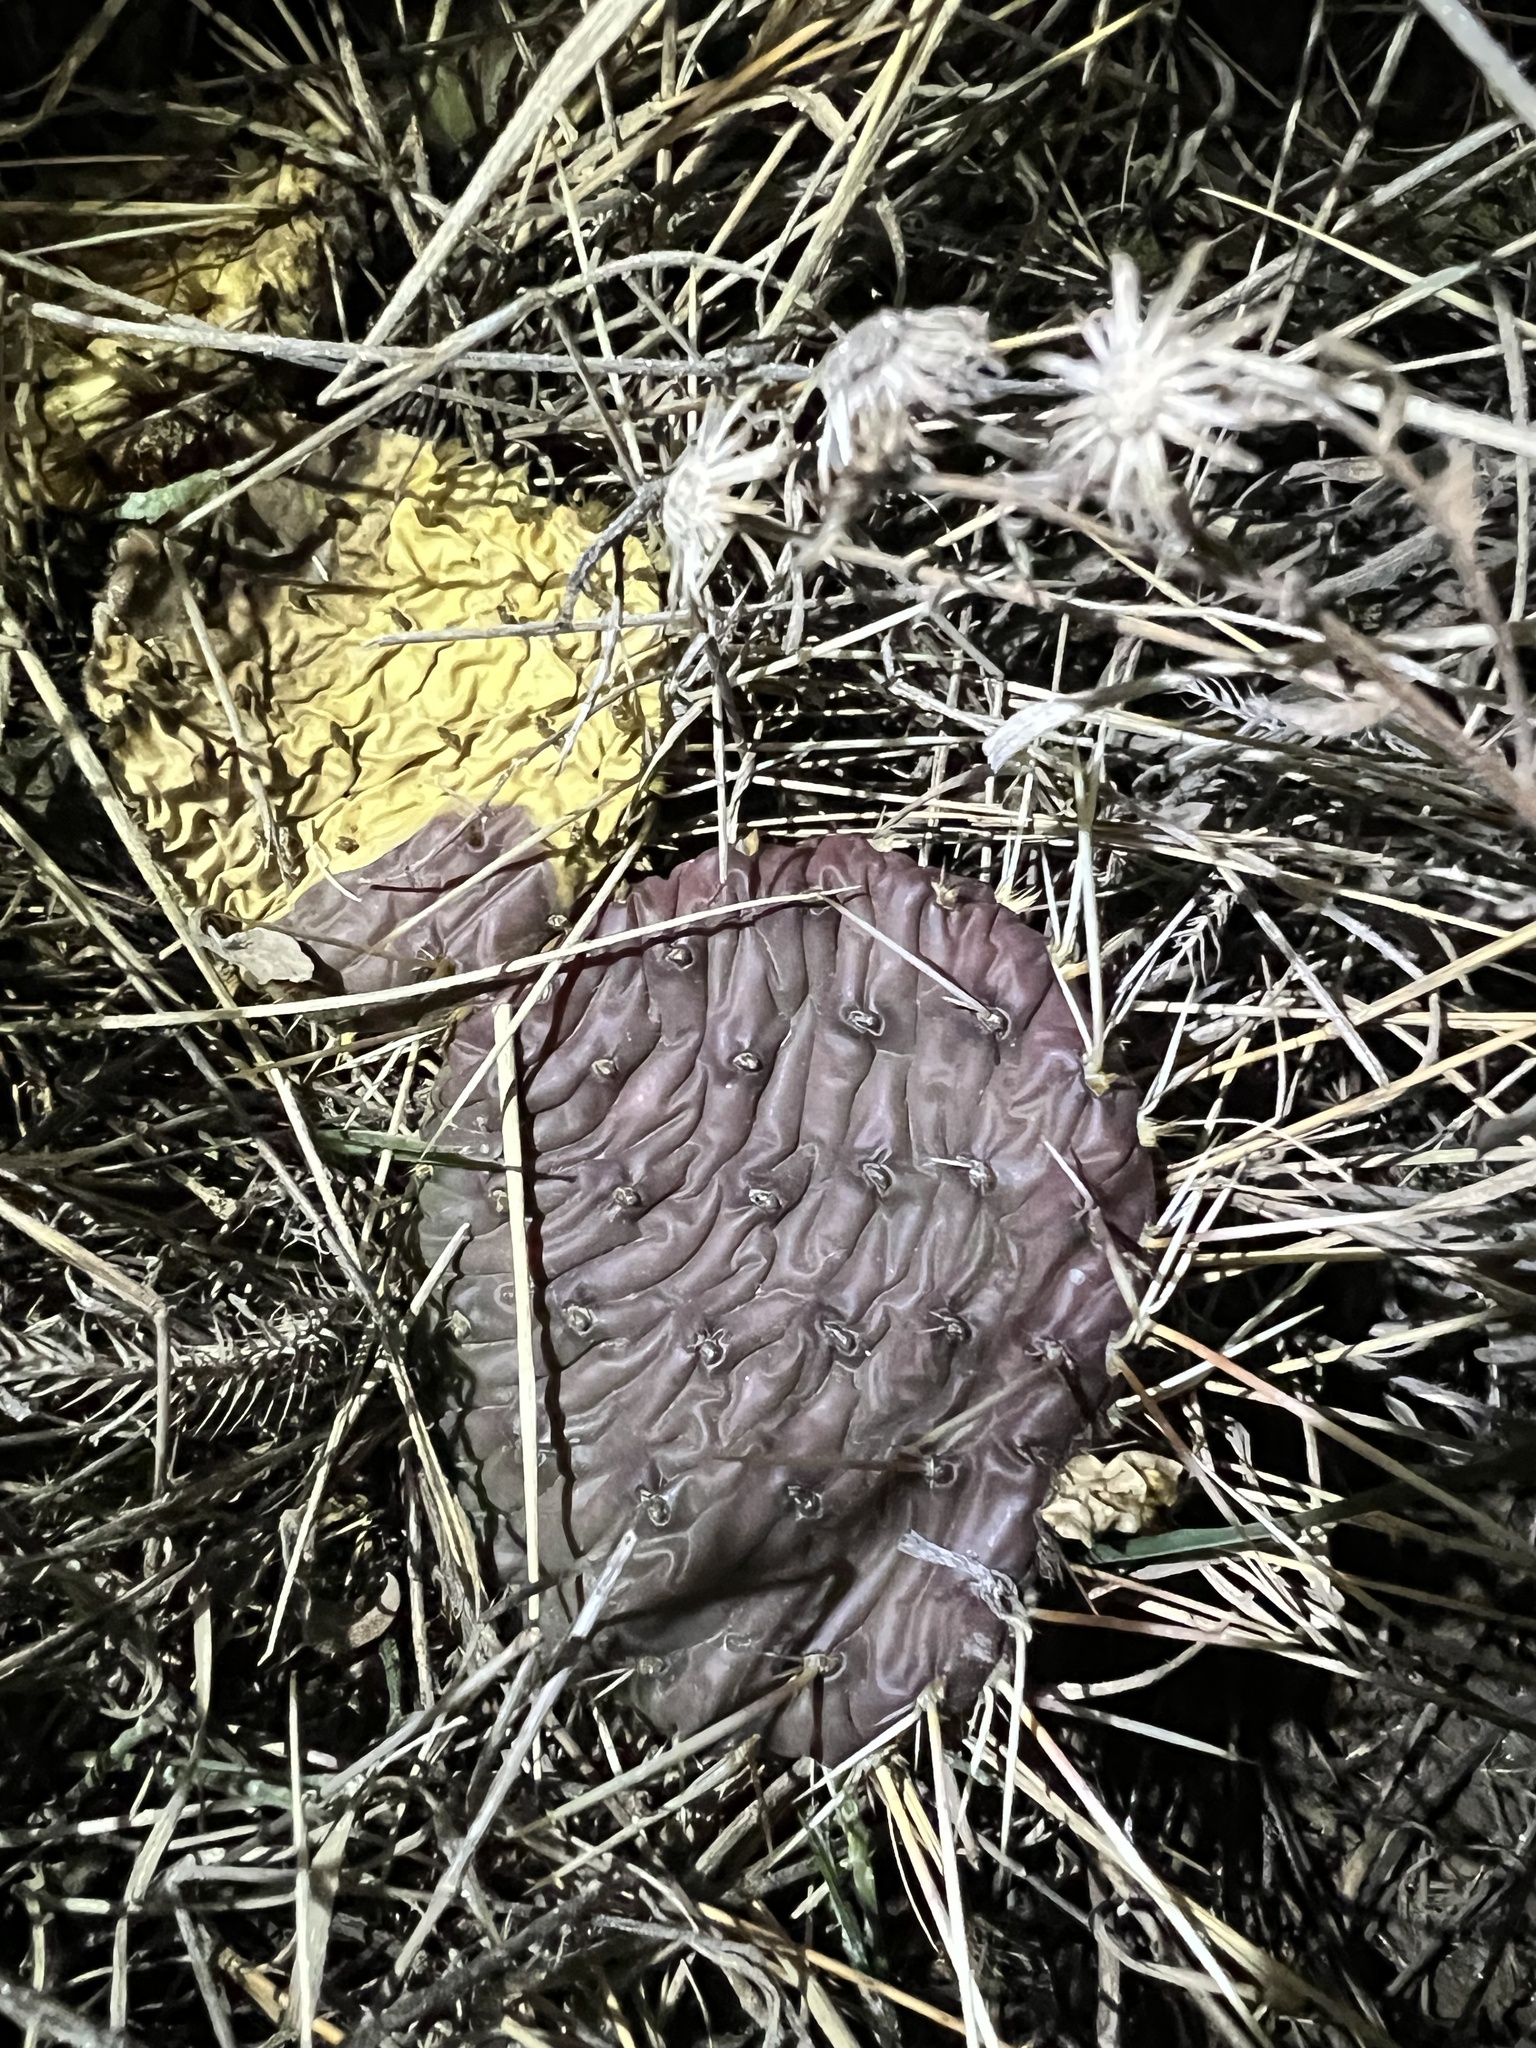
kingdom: Plantae
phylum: Tracheophyta
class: Magnoliopsida
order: Caryophyllales
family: Cactaceae
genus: Opuntia
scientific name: Opuntia macrorhiza
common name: Grassland pricklypear
